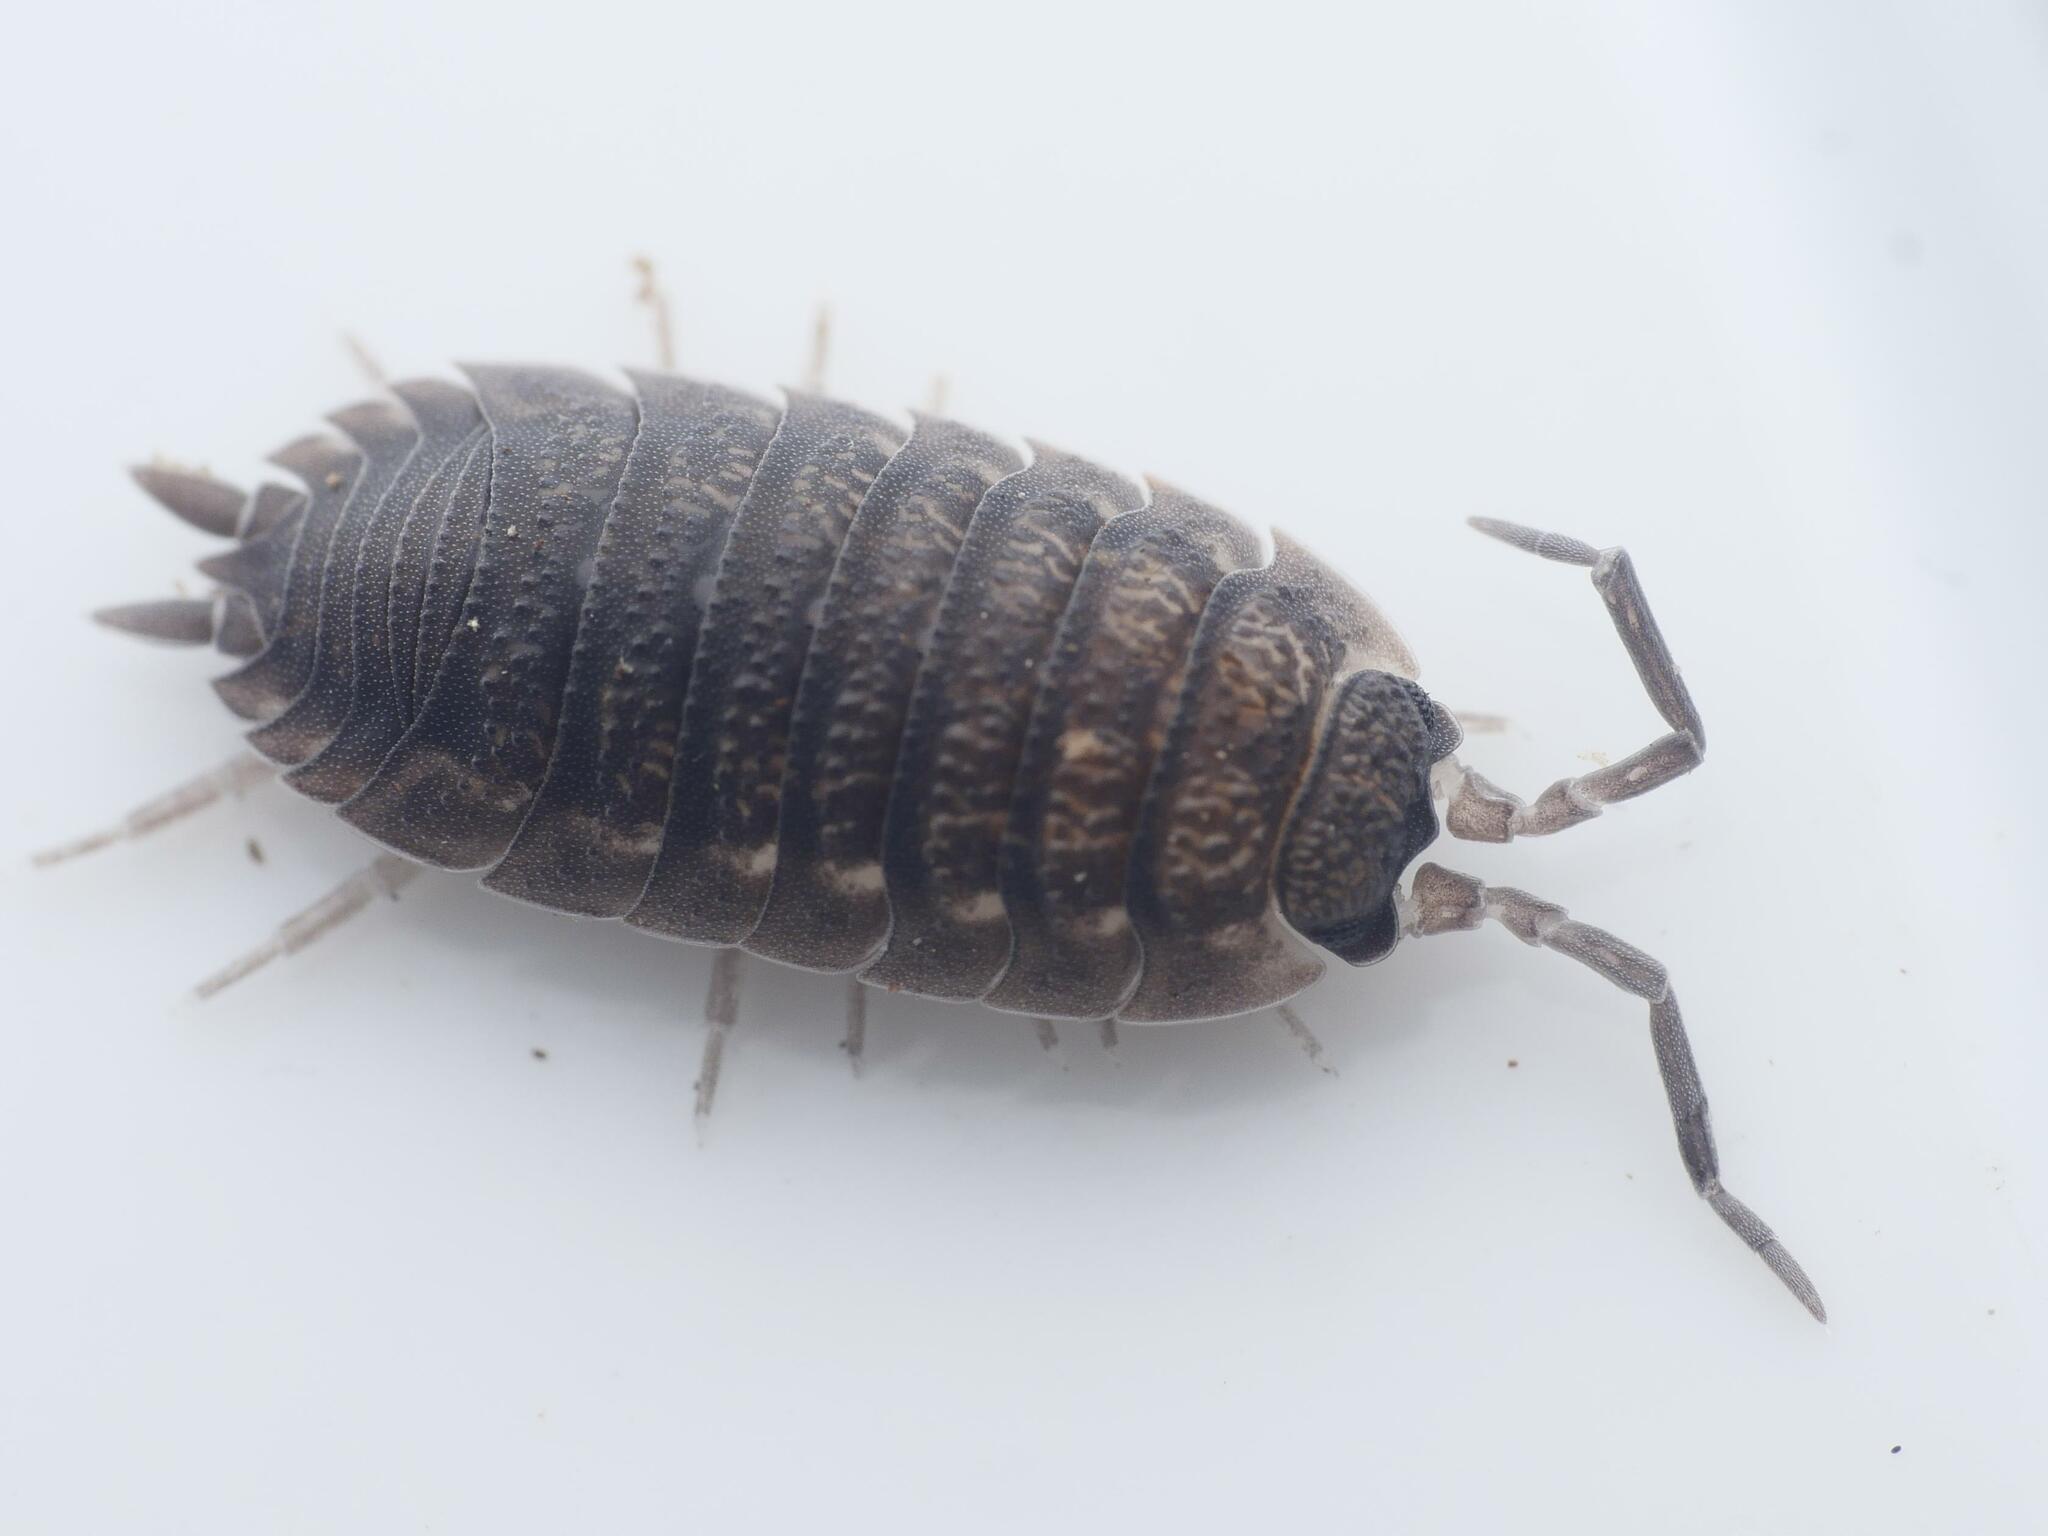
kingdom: Animalia
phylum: Arthropoda
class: Malacostraca
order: Isopoda
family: Porcellionidae
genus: Porcellio
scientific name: Porcellio scaber
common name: Common rough woodlouse
